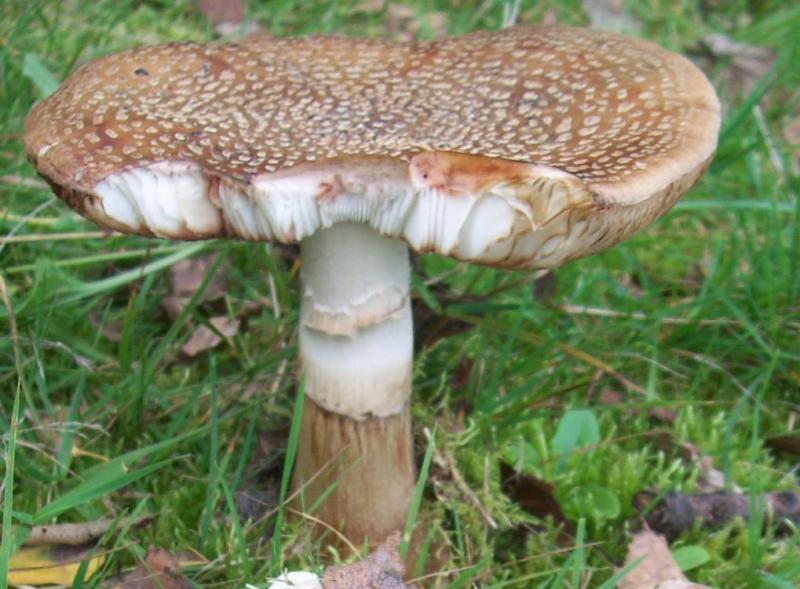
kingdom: Fungi
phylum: Basidiomycota
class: Agaricomycetes
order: Agaricales
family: Amanitaceae
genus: Amanita
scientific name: Amanita rubescens
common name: Blusher
